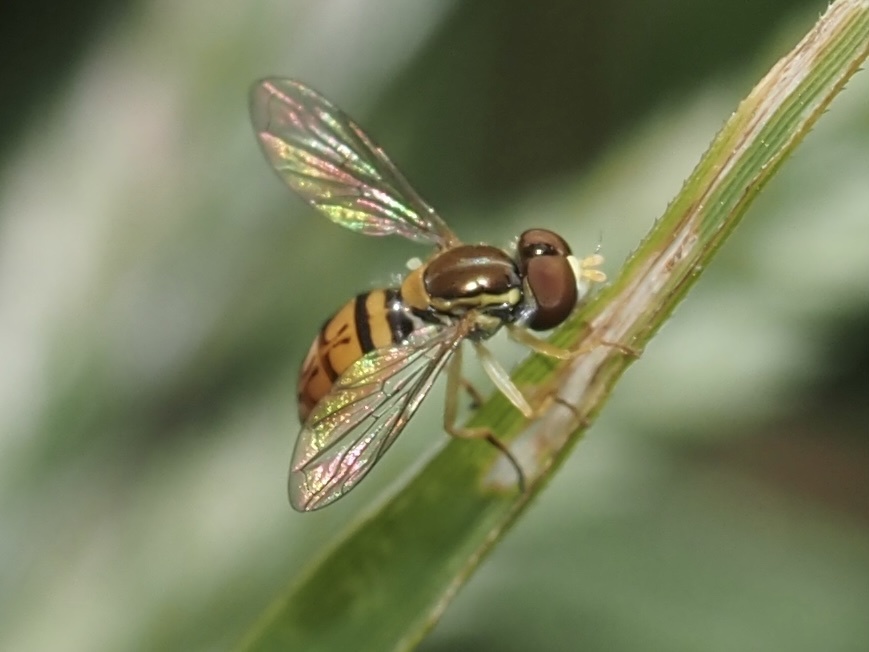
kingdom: Animalia
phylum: Arthropoda
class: Insecta
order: Diptera
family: Syrphidae
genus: Toxomerus
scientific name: Toxomerus marginatus
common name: Syrphid fly
